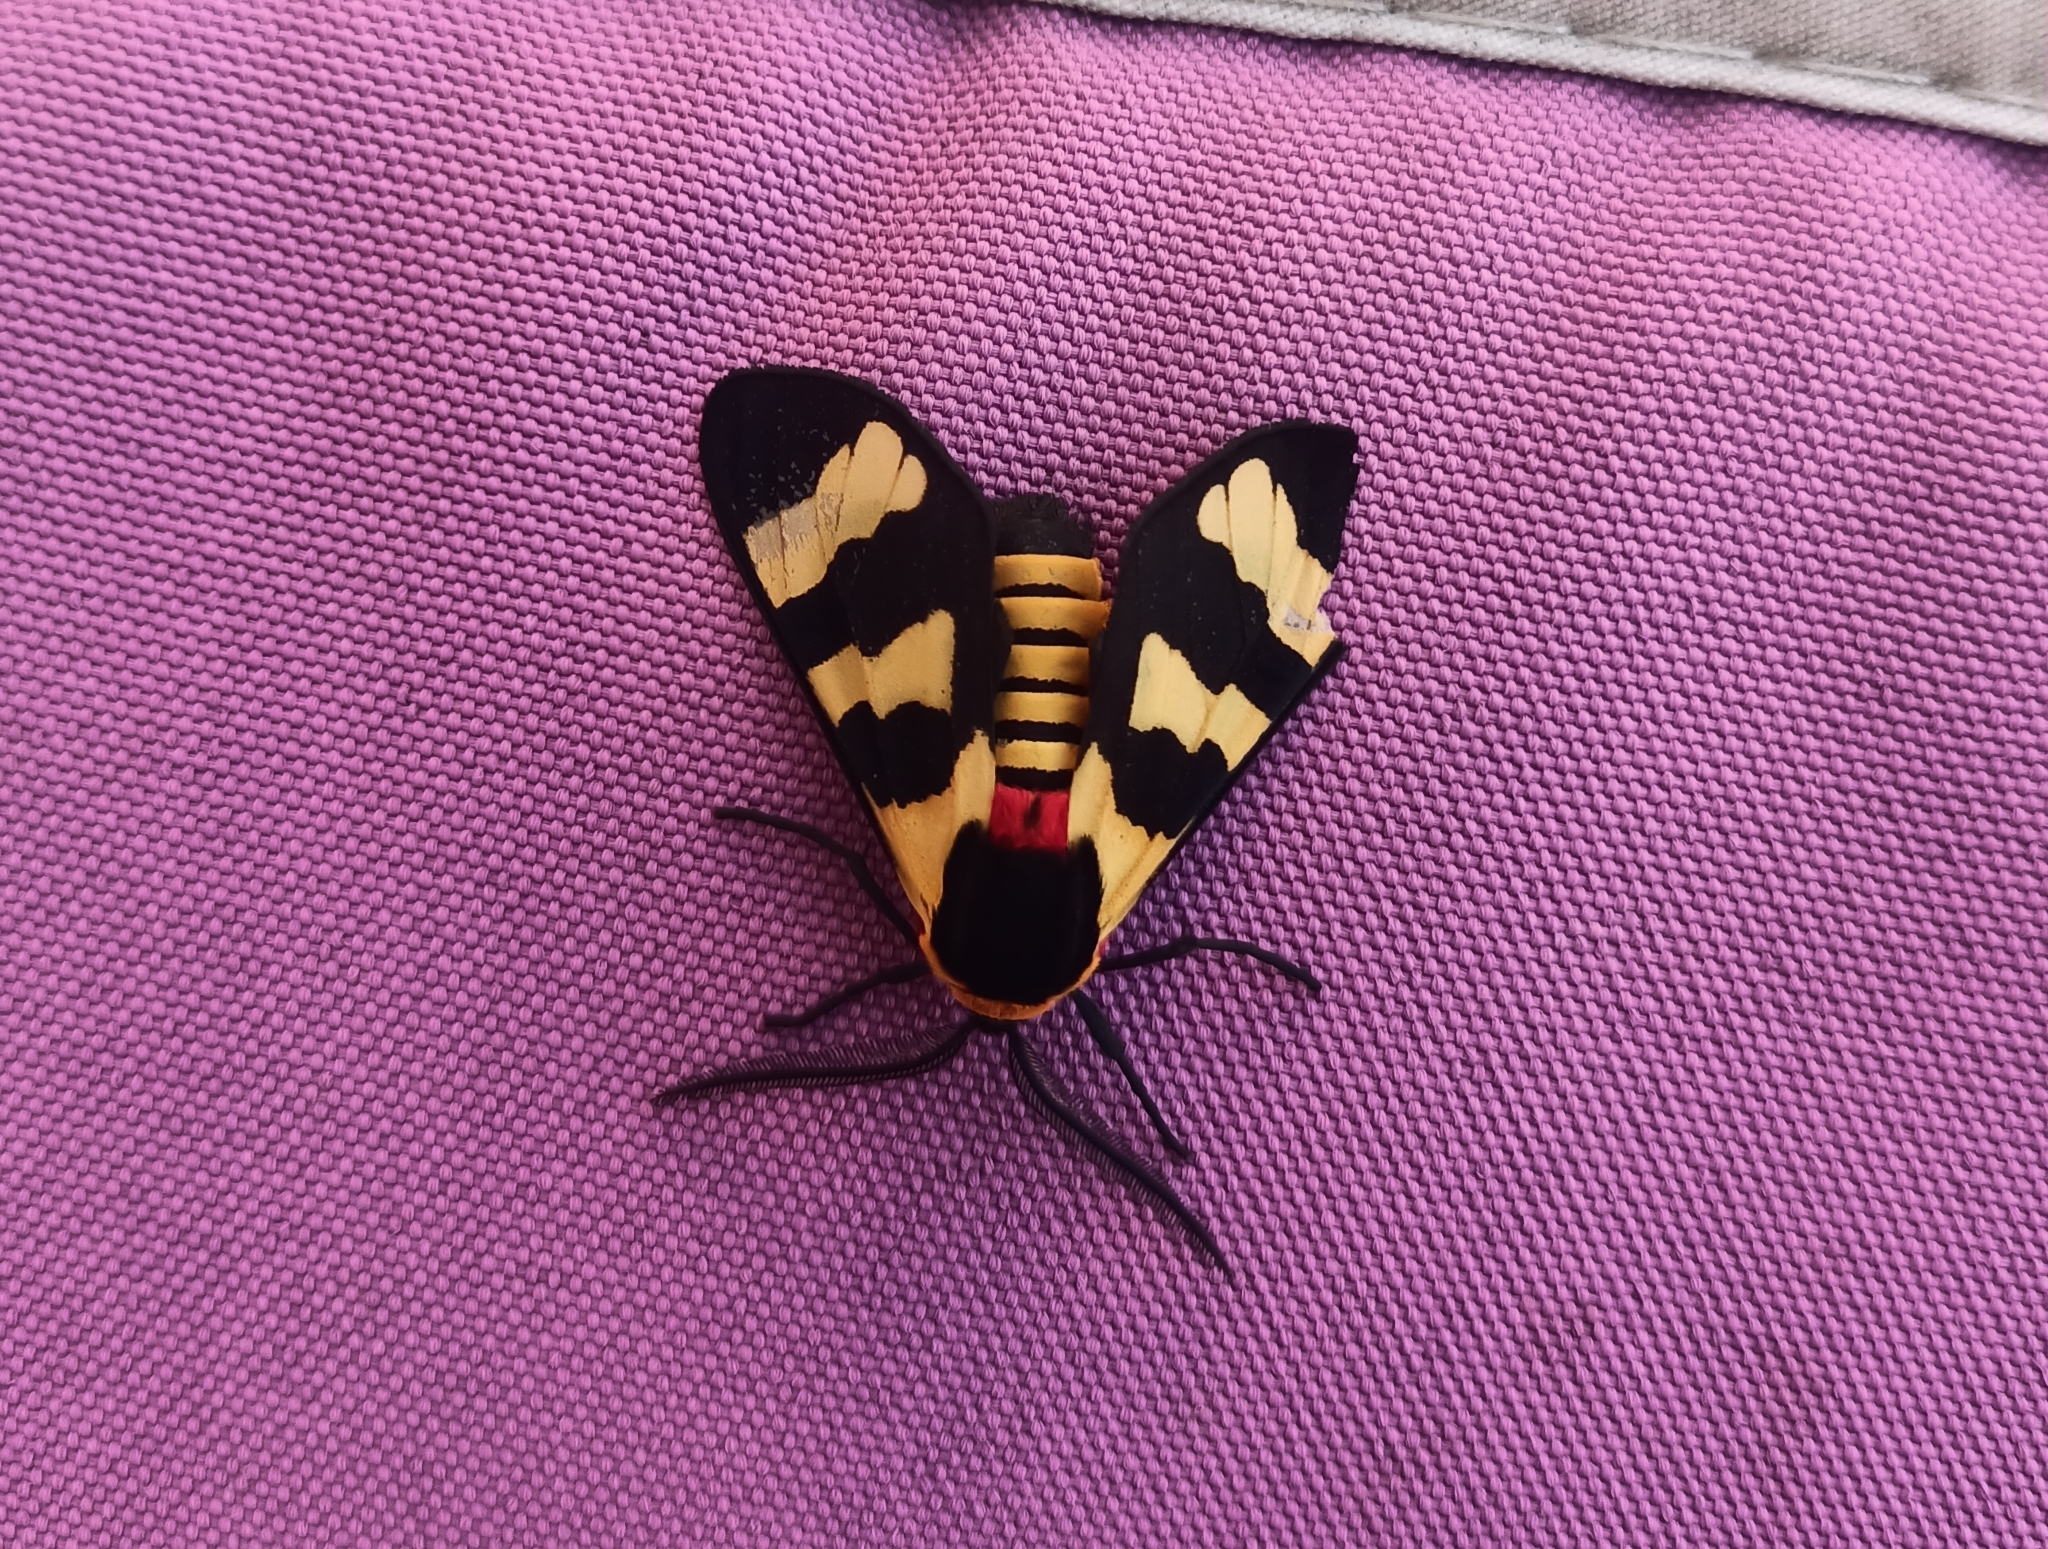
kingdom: Animalia
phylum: Arthropoda
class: Insecta
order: Lepidoptera
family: Erebidae
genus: Eurata
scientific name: Eurata hilaris
